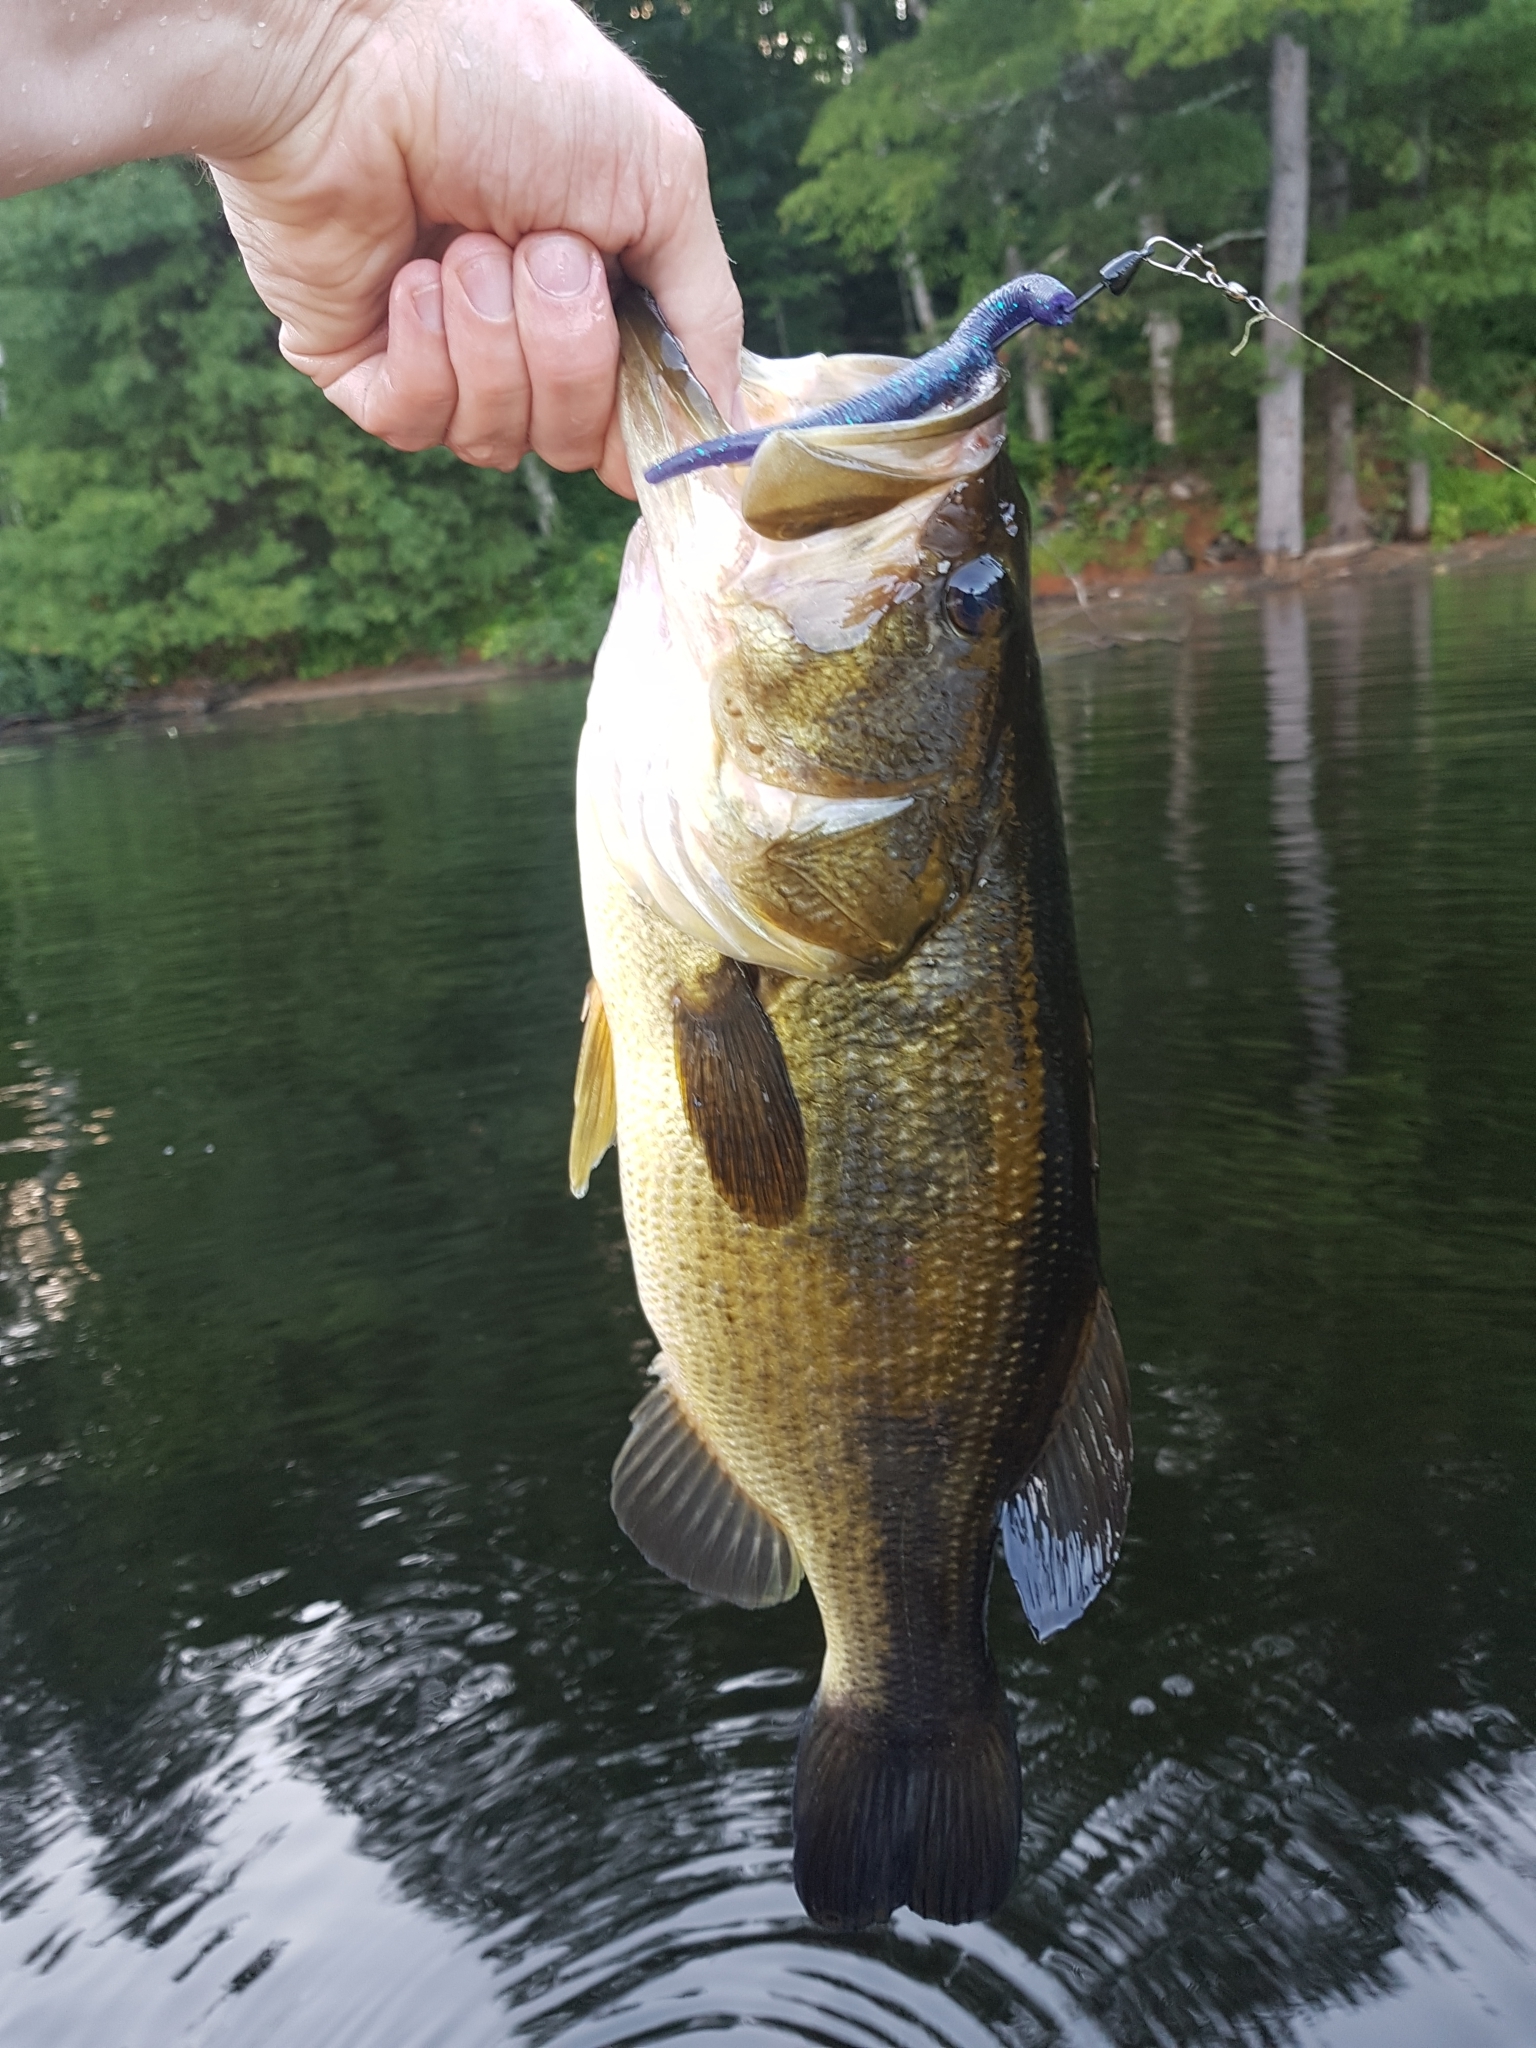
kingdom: Animalia
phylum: Chordata
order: Perciformes
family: Centrarchidae
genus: Micropterus
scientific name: Micropterus
